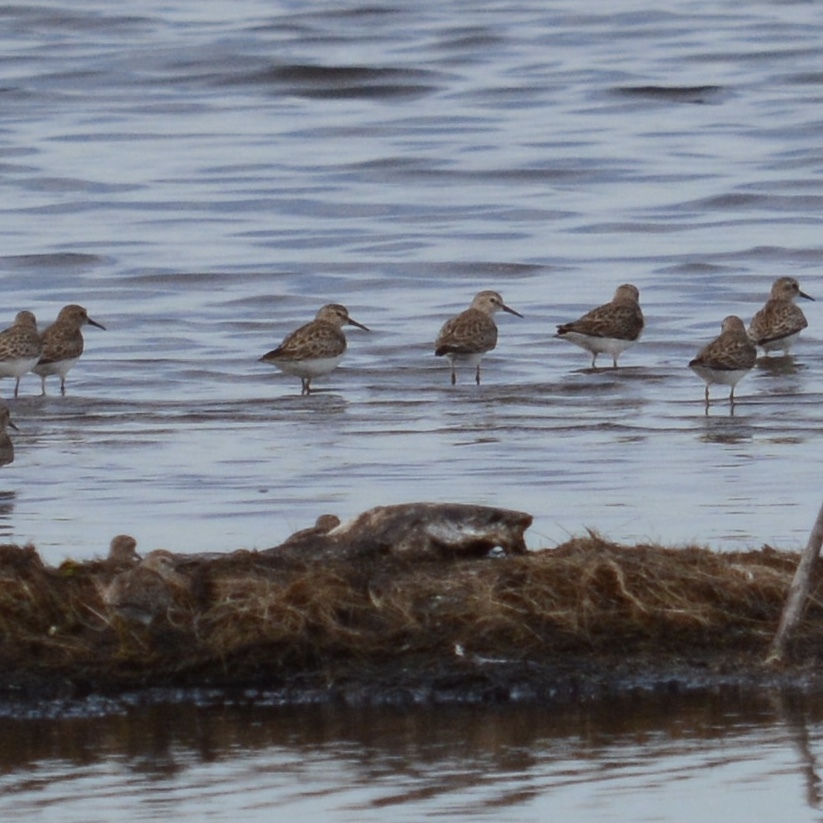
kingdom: Animalia
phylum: Chordata
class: Aves
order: Charadriiformes
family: Scolopacidae
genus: Calidris
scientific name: Calidris minutilla
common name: Least sandpiper
